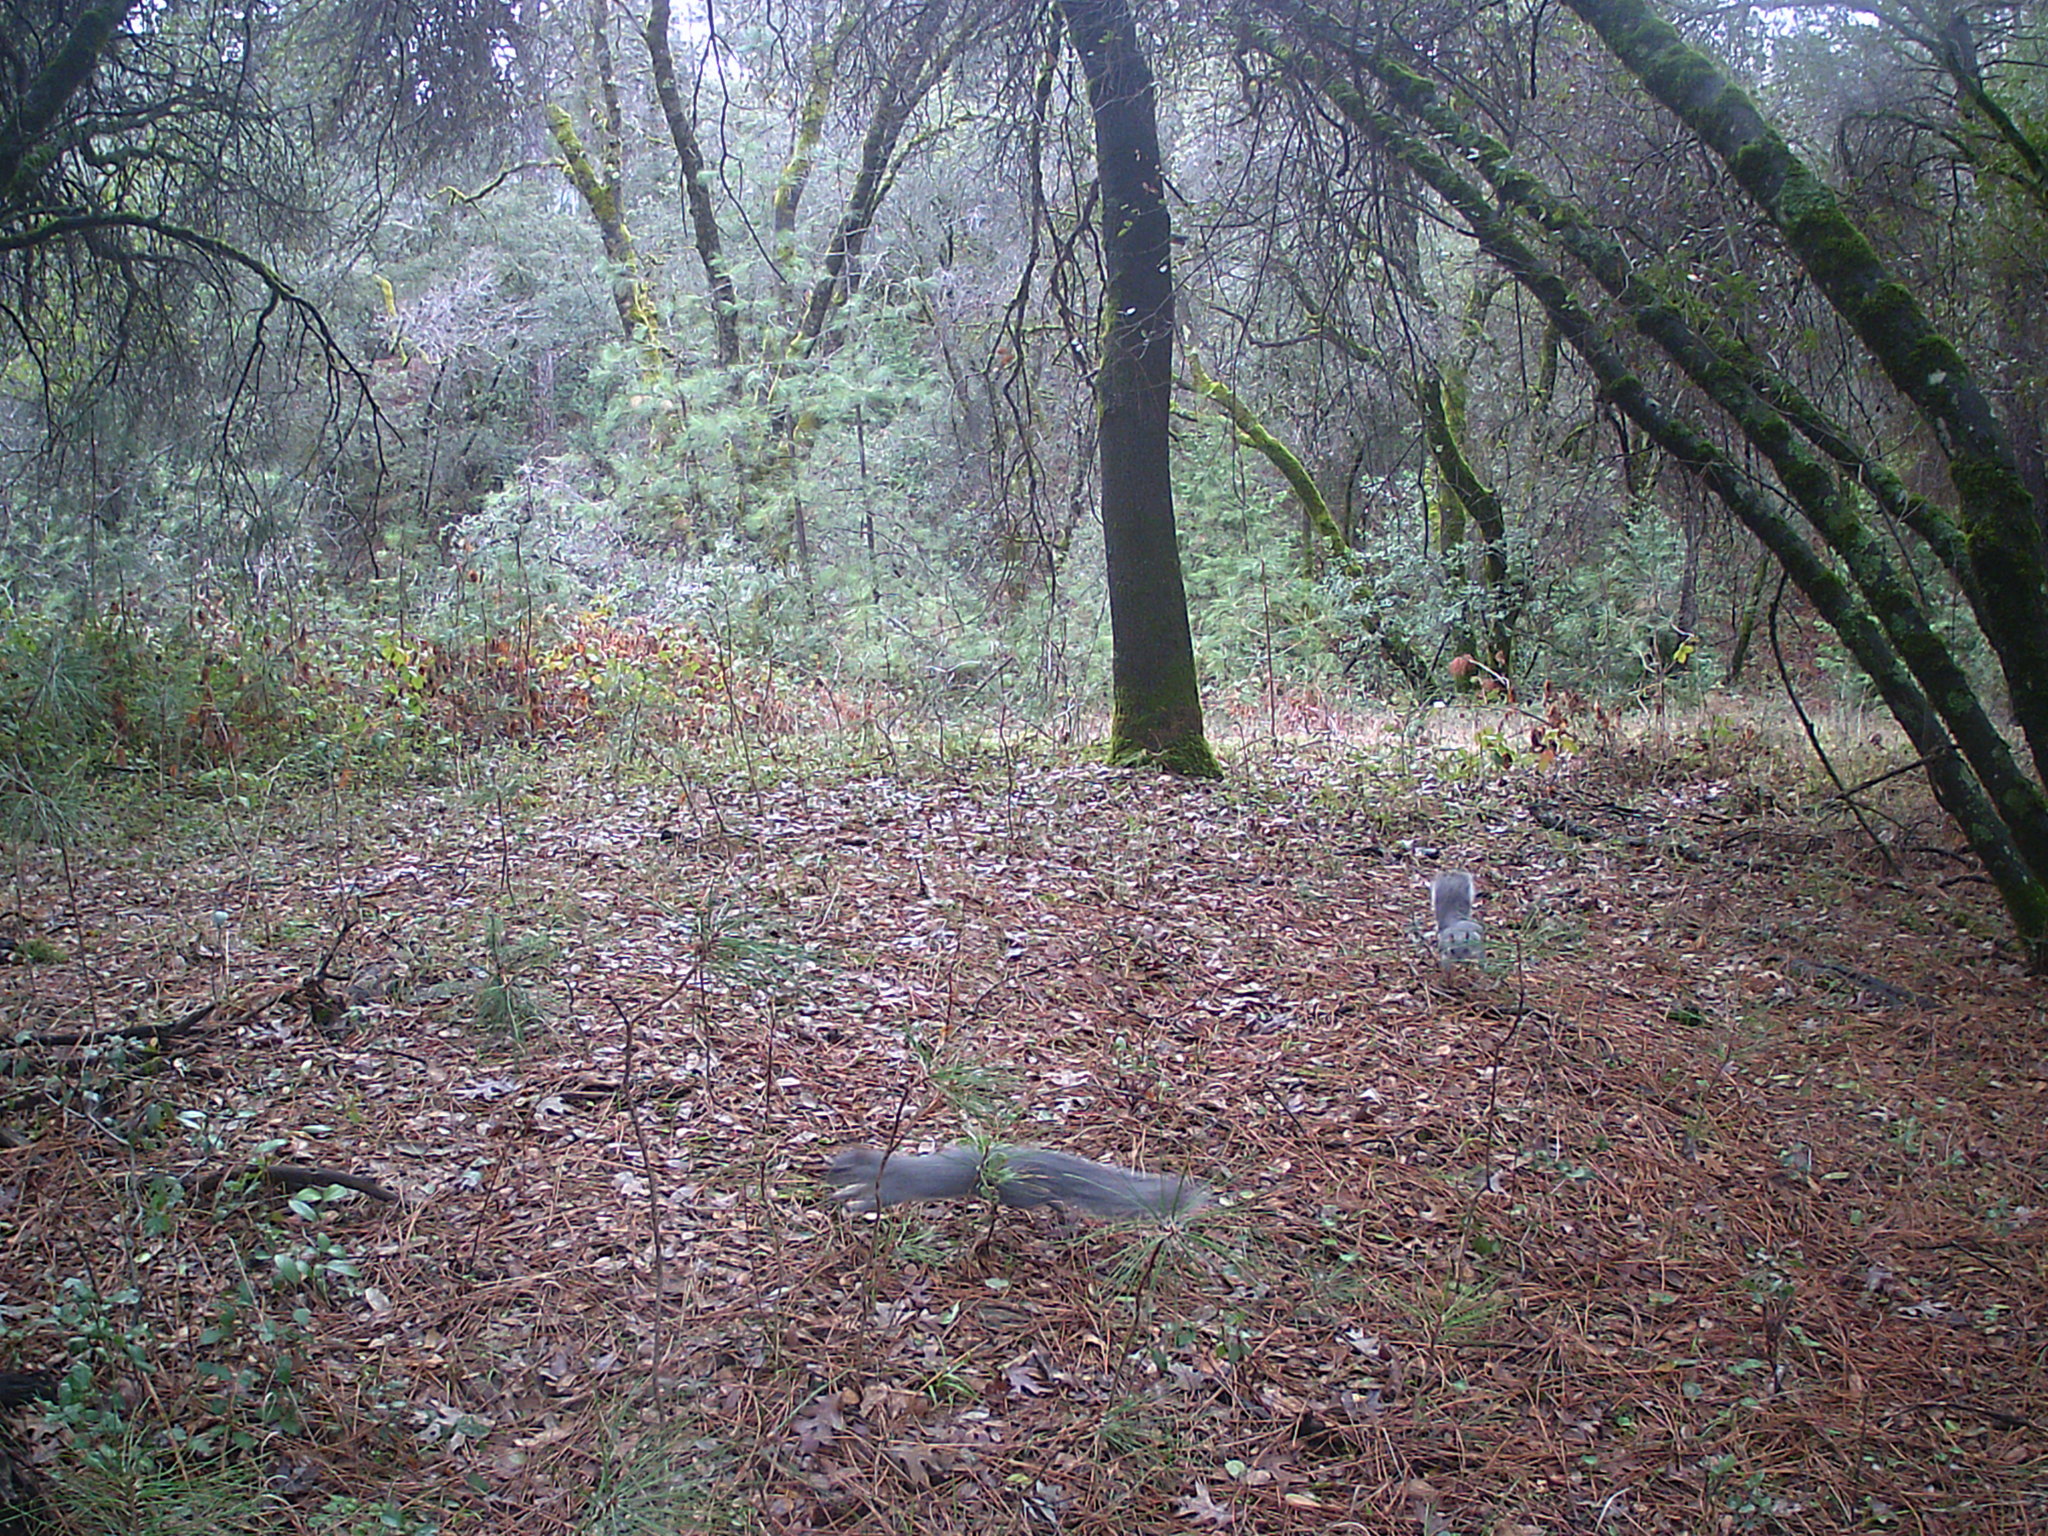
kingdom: Animalia
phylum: Chordata
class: Mammalia
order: Rodentia
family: Sciuridae
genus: Sciurus
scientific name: Sciurus griseus
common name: Western gray squirrel
